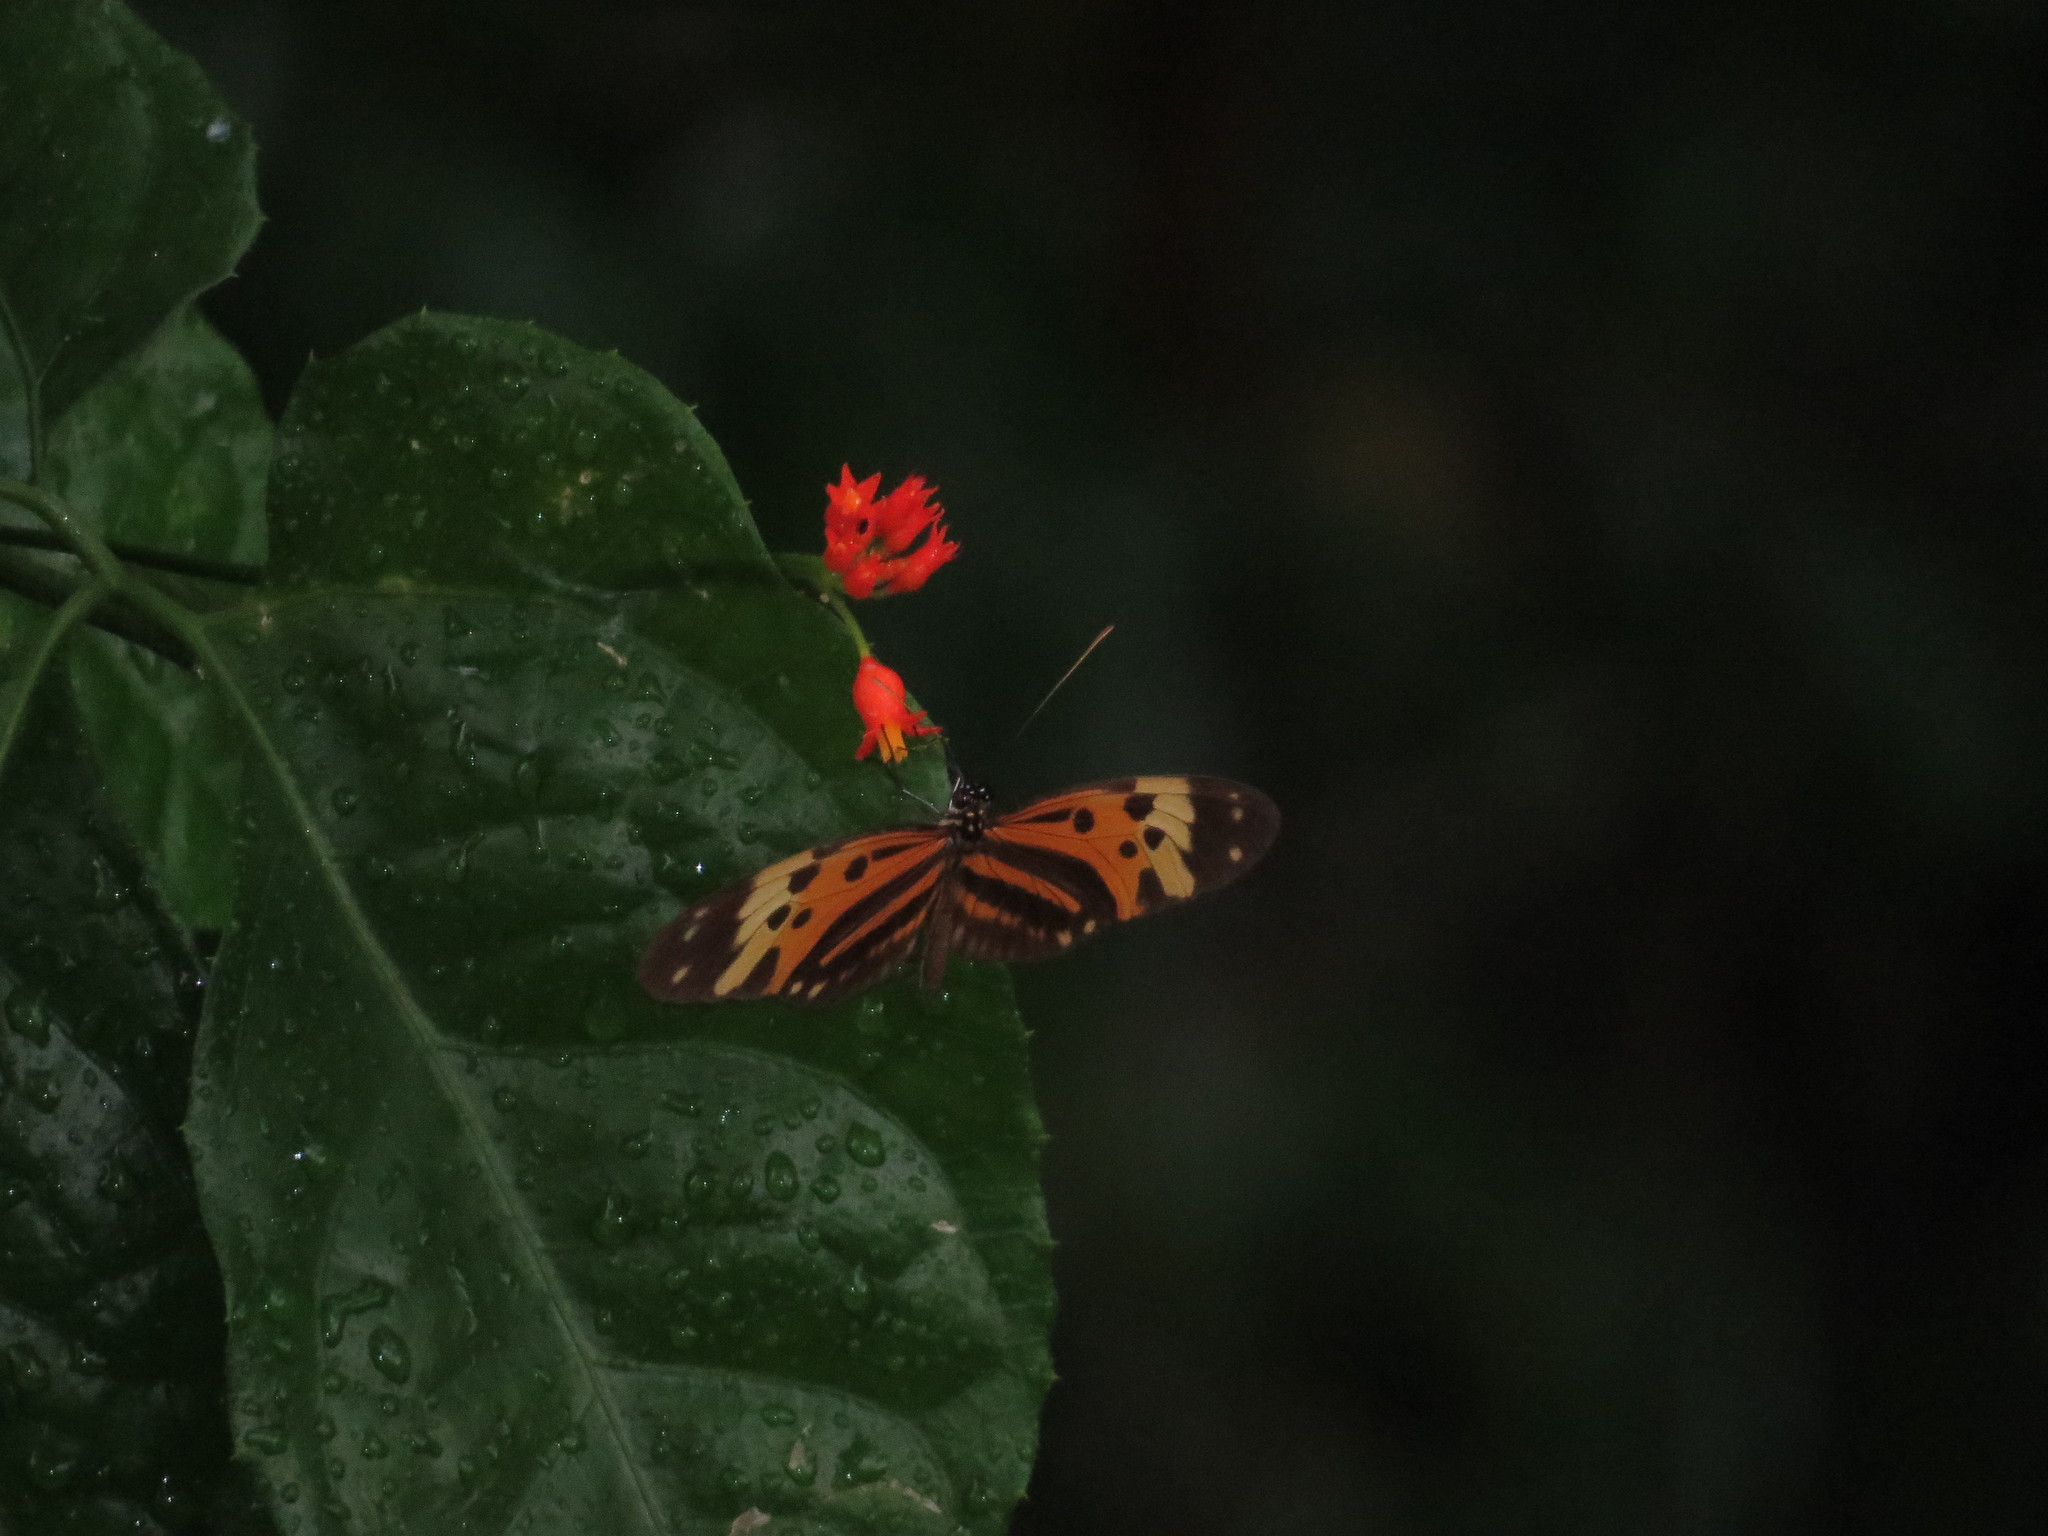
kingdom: Animalia
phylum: Arthropoda
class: Insecta
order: Lepidoptera
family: Nymphalidae
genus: Heliconius
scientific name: Heliconius numatus
